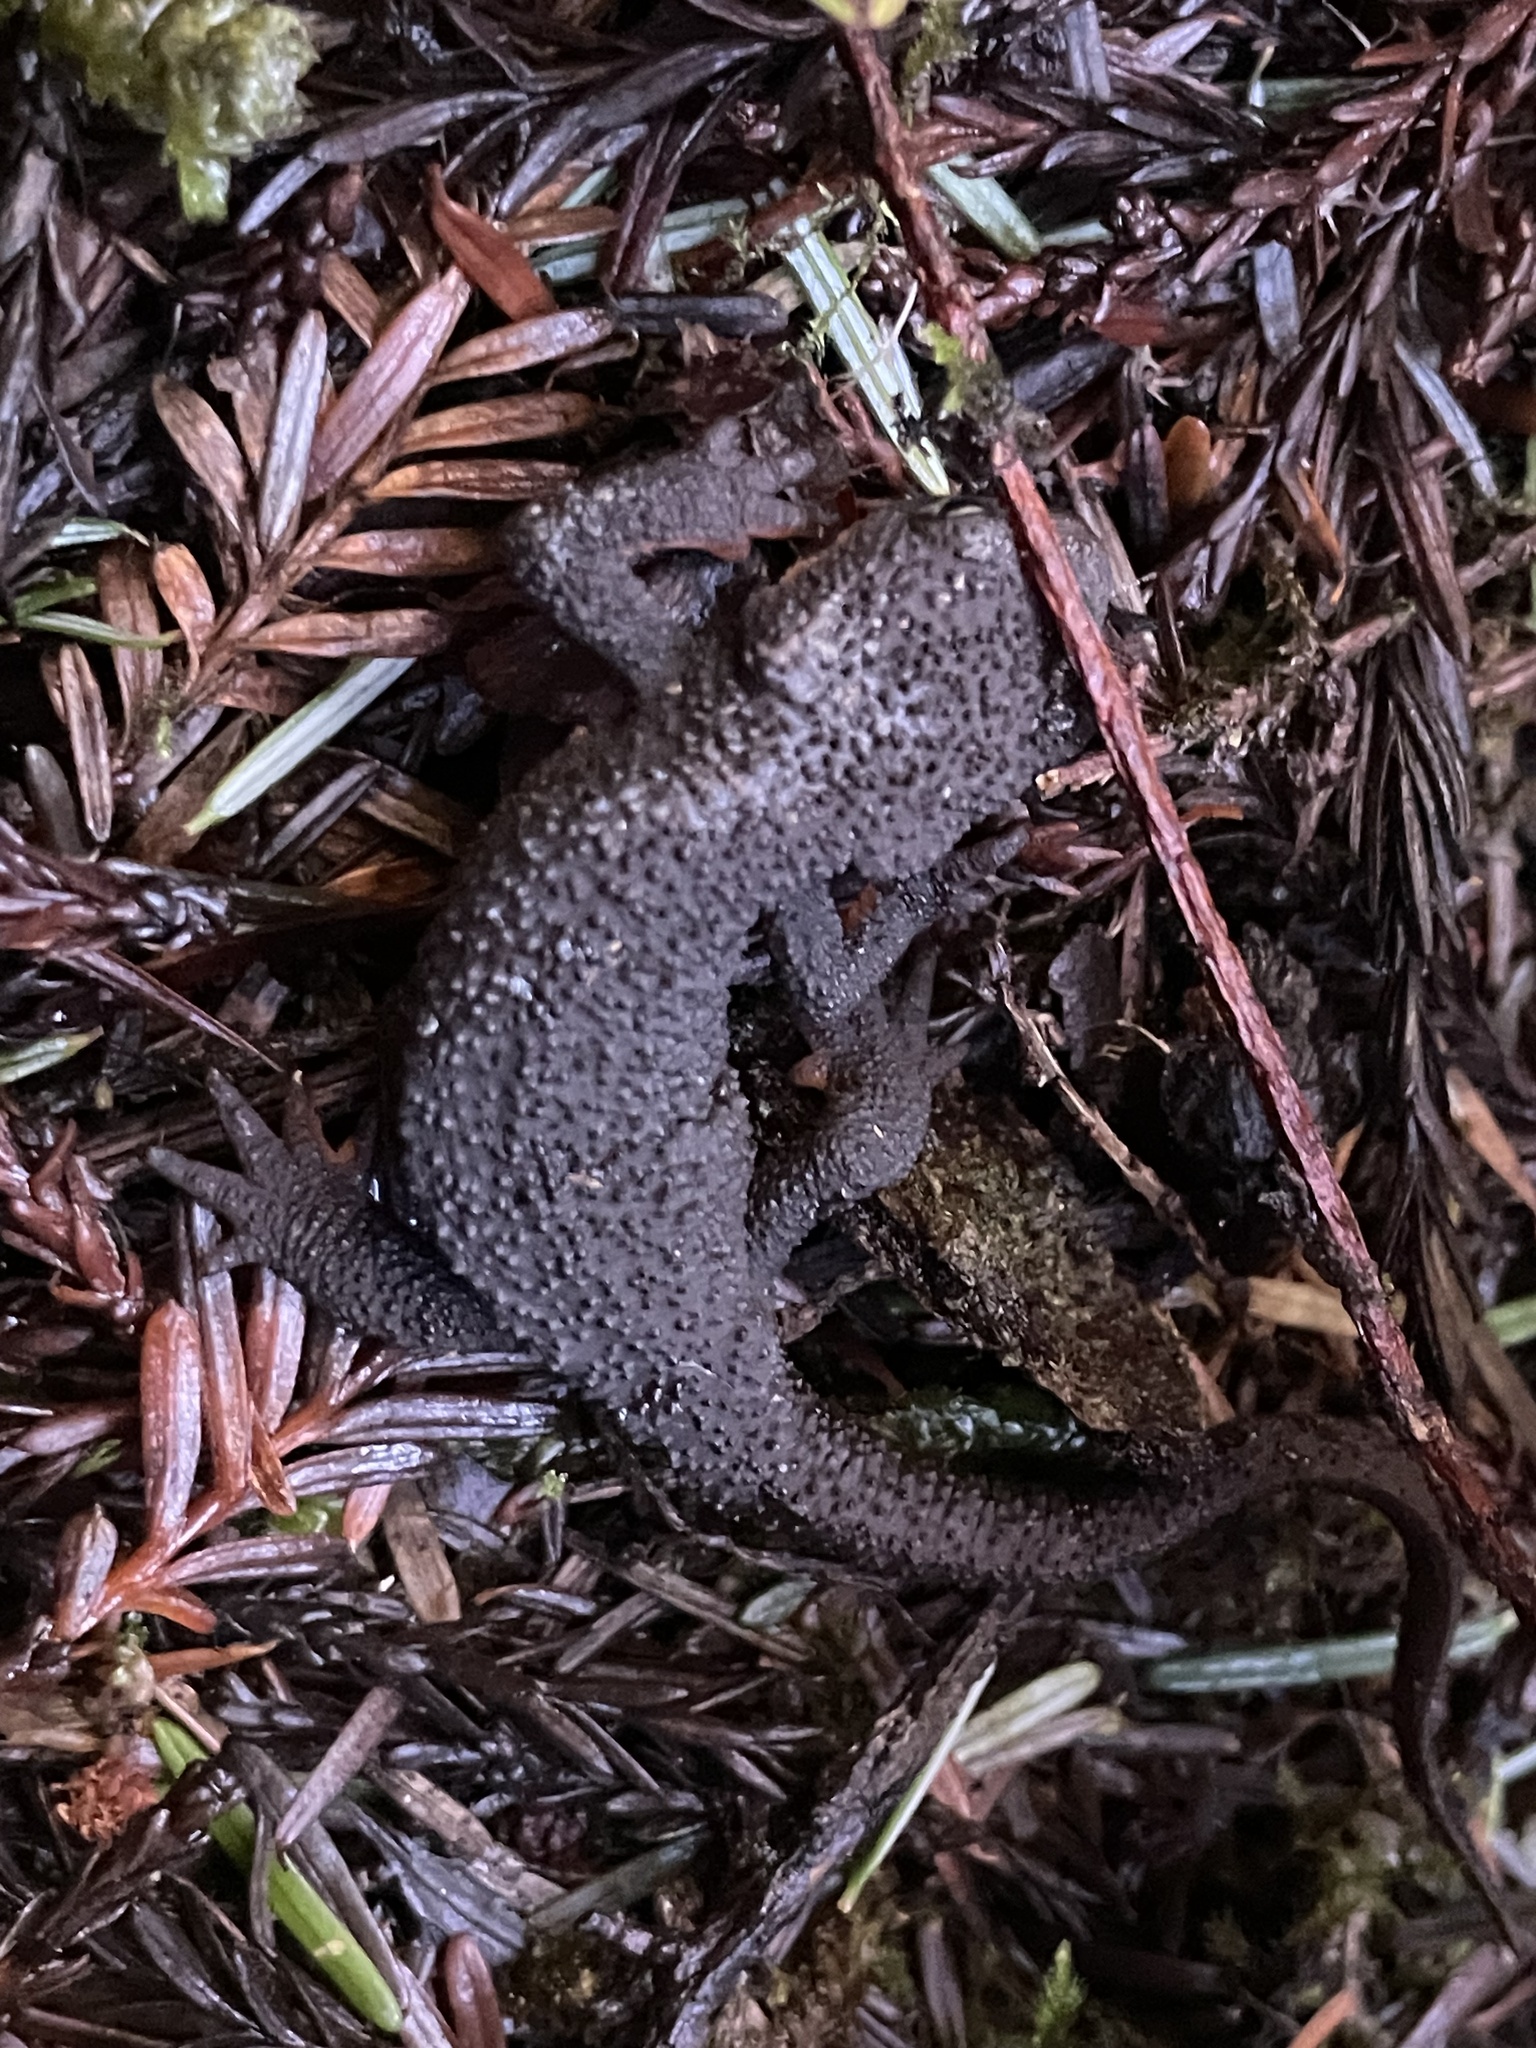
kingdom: Animalia
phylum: Chordata
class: Amphibia
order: Caudata
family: Salamandridae
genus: Taricha
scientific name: Taricha granulosa
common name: Roughskin newt
